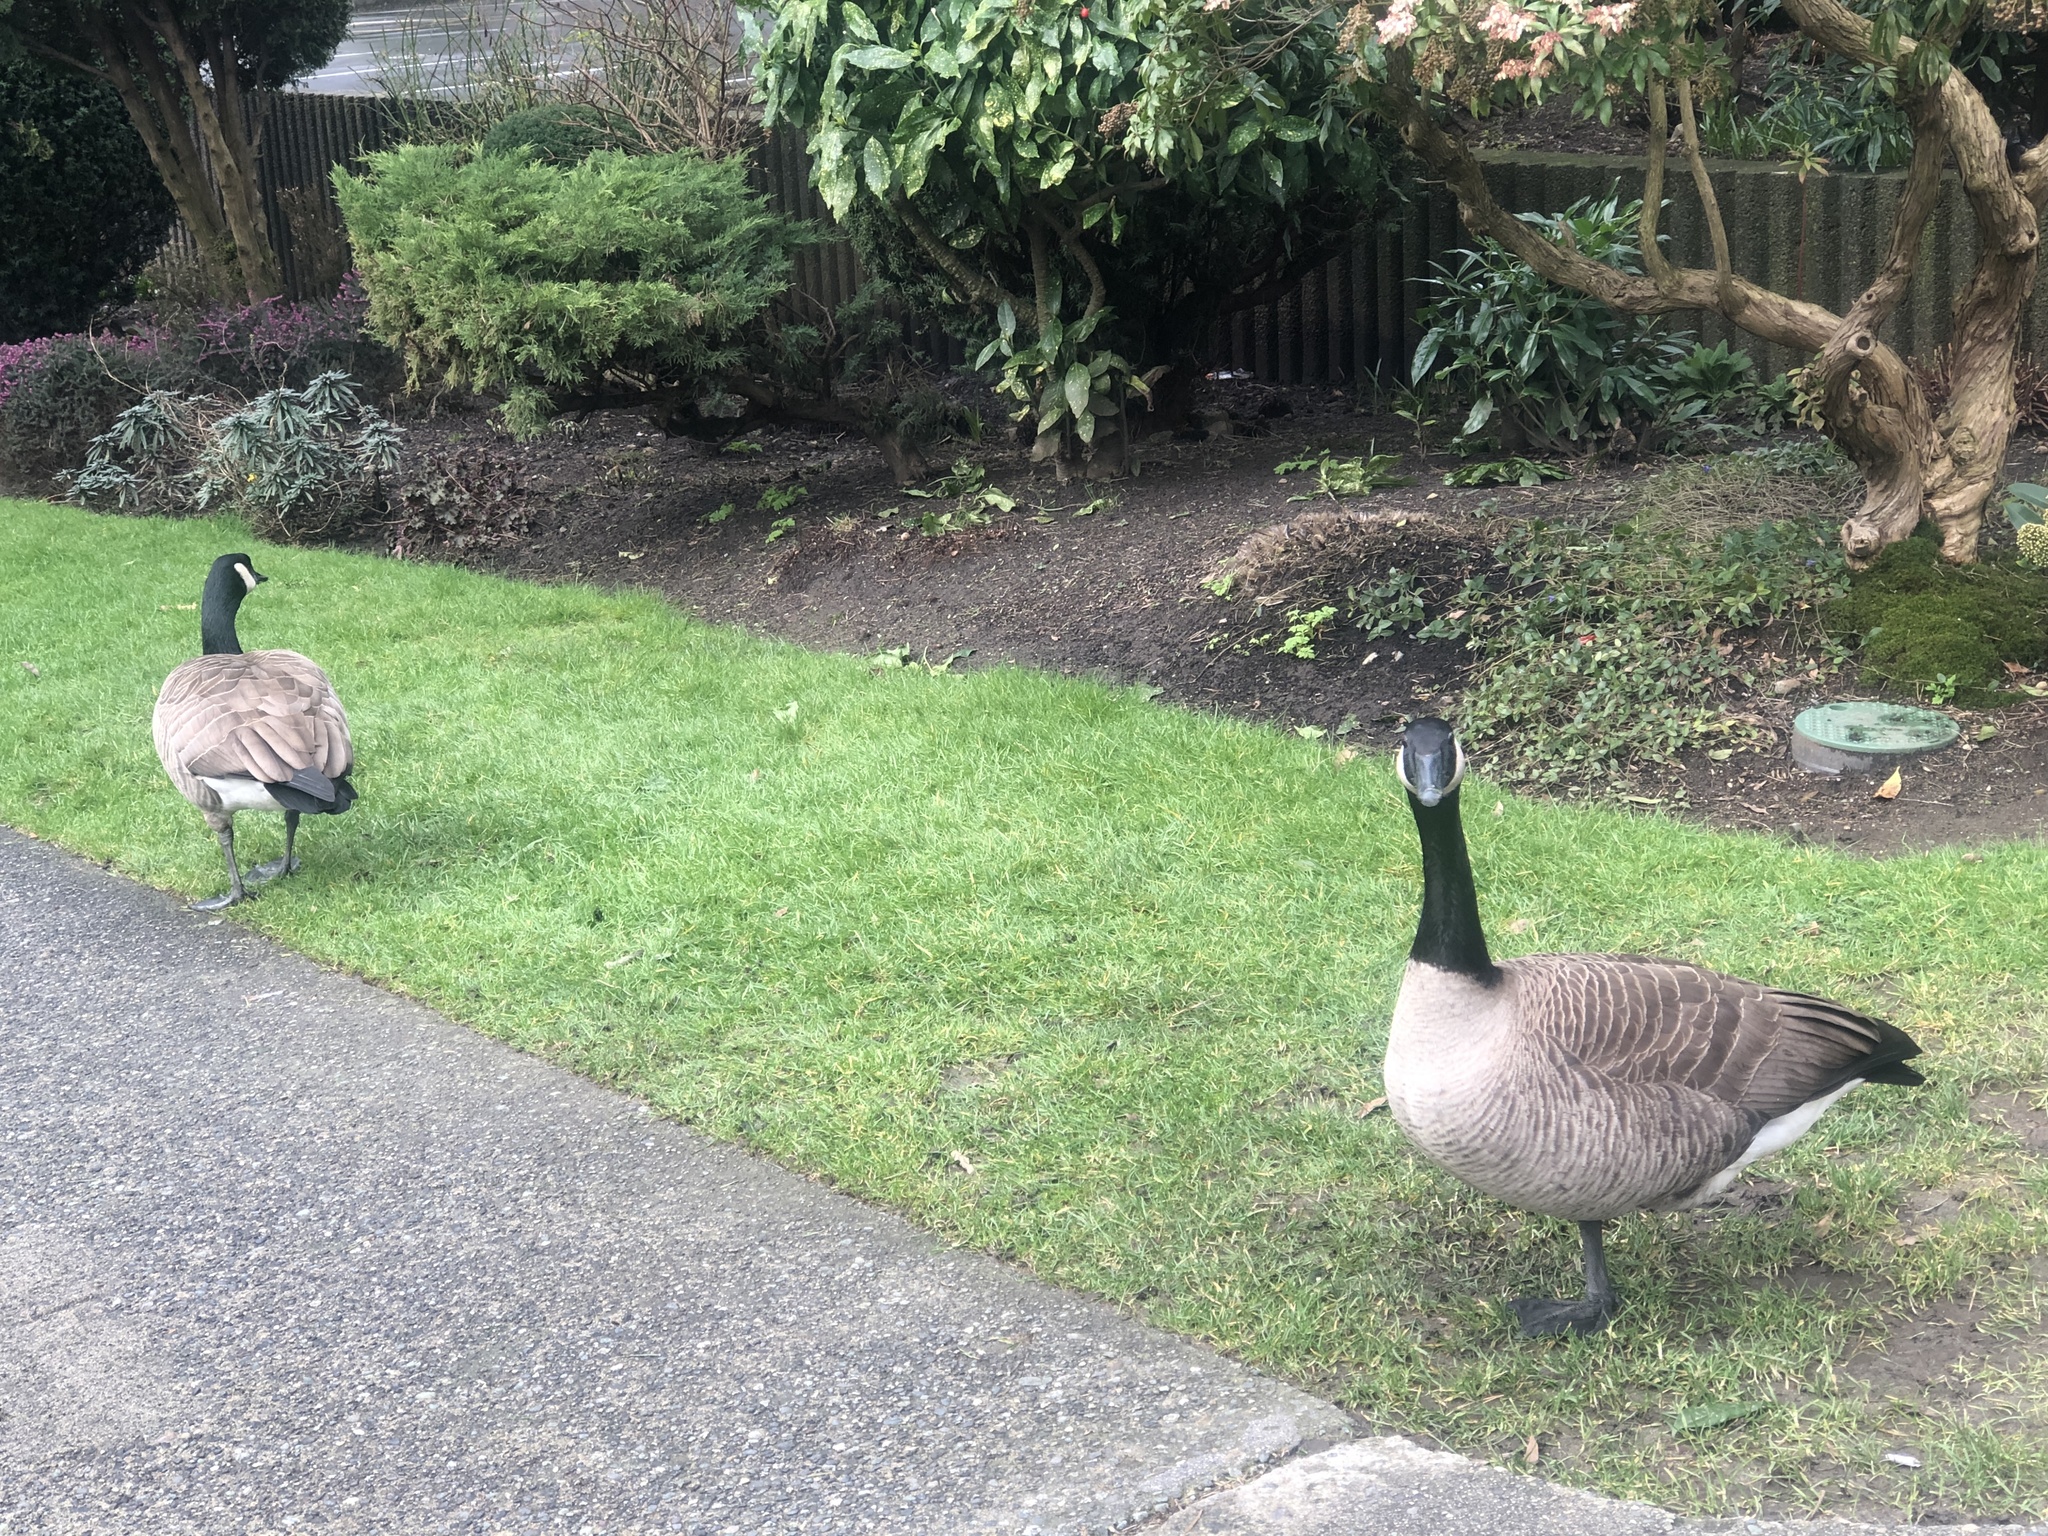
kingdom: Animalia
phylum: Chordata
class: Aves
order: Anseriformes
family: Anatidae
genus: Branta
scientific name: Branta canadensis
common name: Canada goose
